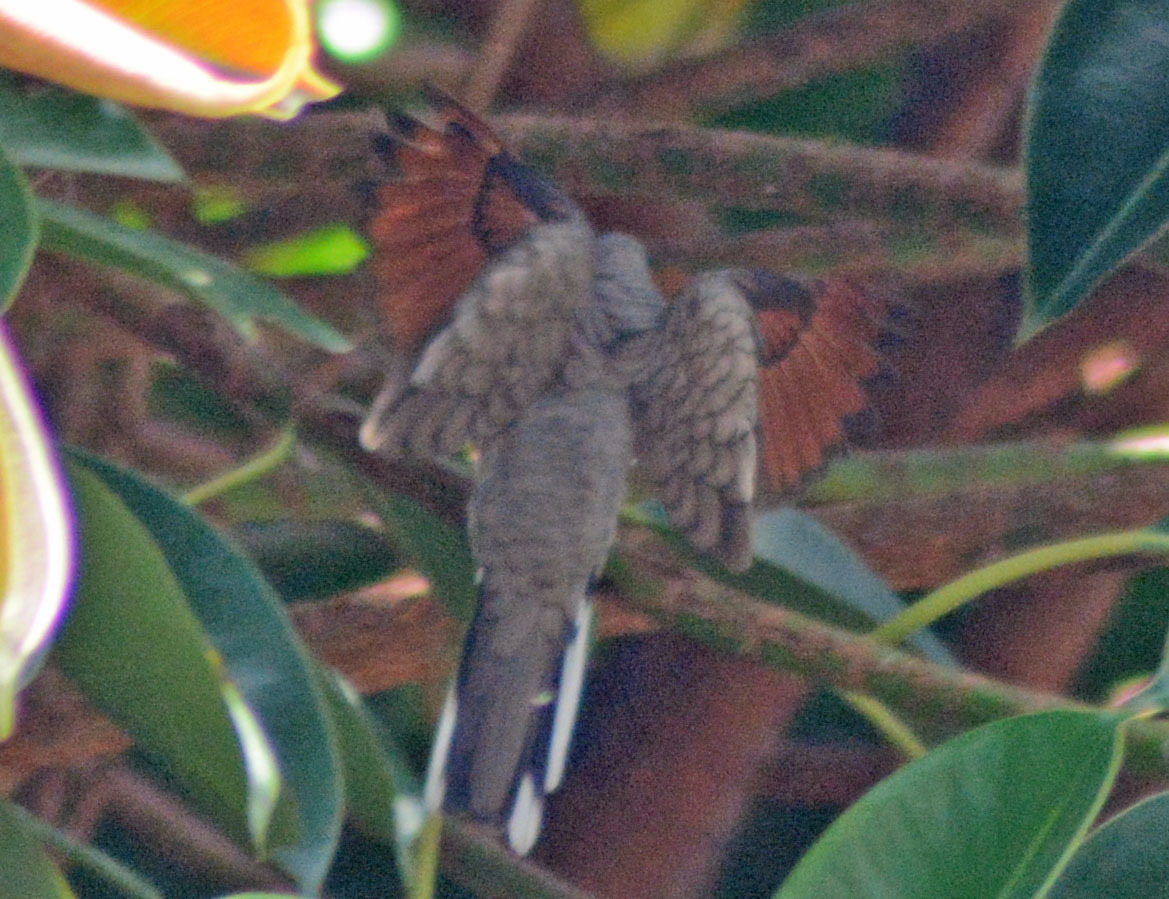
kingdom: Animalia
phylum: Chordata
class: Aves
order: Columbiformes
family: Columbidae
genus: Columbina
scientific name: Columbina inca
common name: Inca dove
